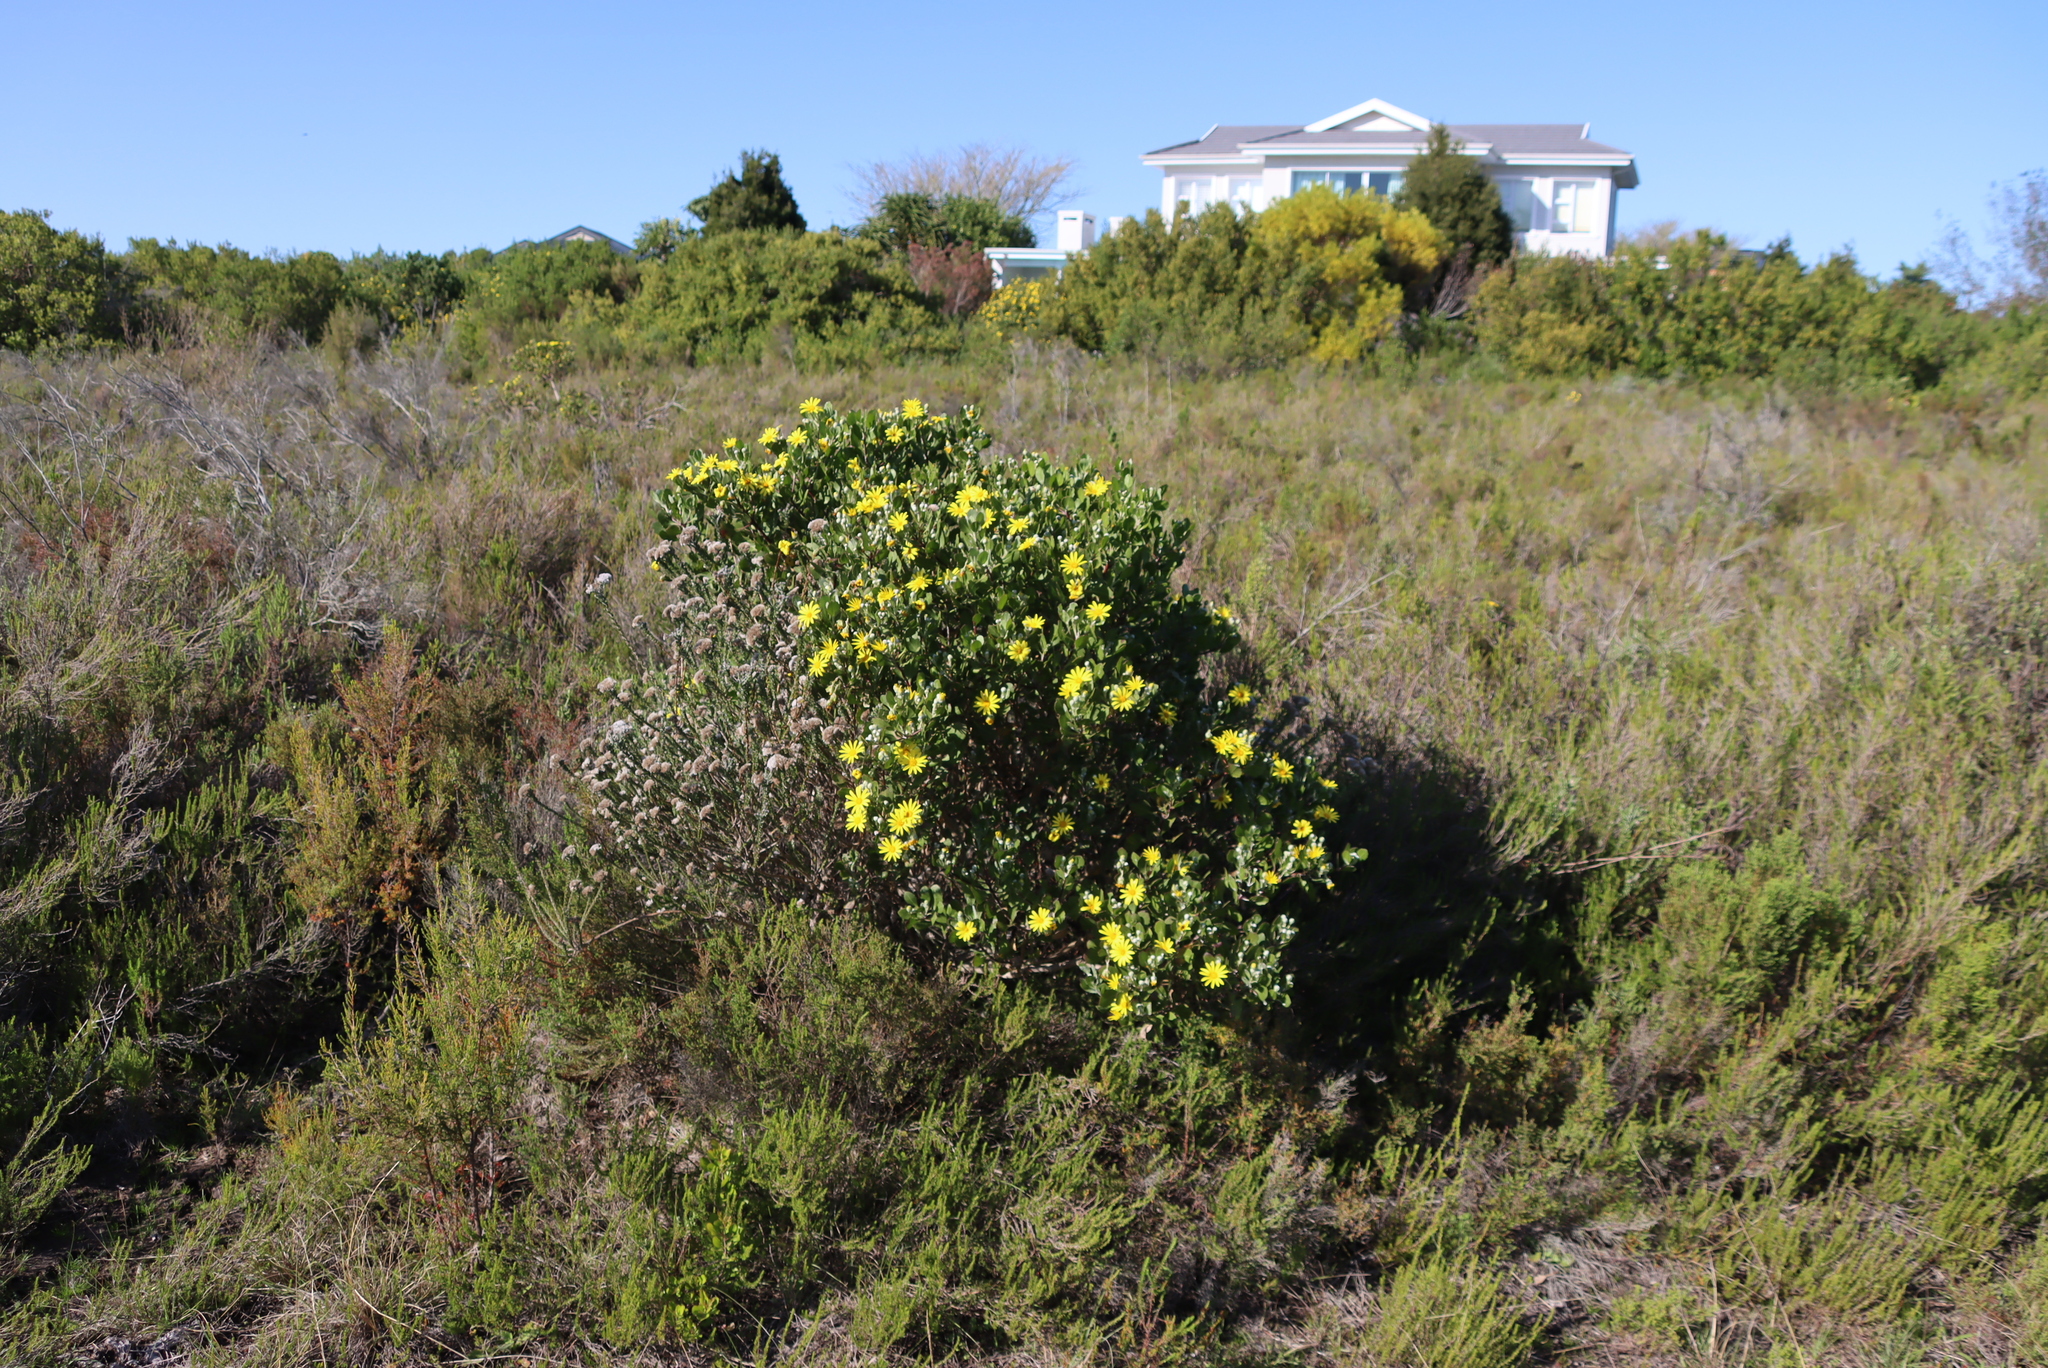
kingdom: Plantae
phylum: Tracheophyta
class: Magnoliopsida
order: Asterales
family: Asteraceae
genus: Osteospermum
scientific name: Osteospermum moniliferum
